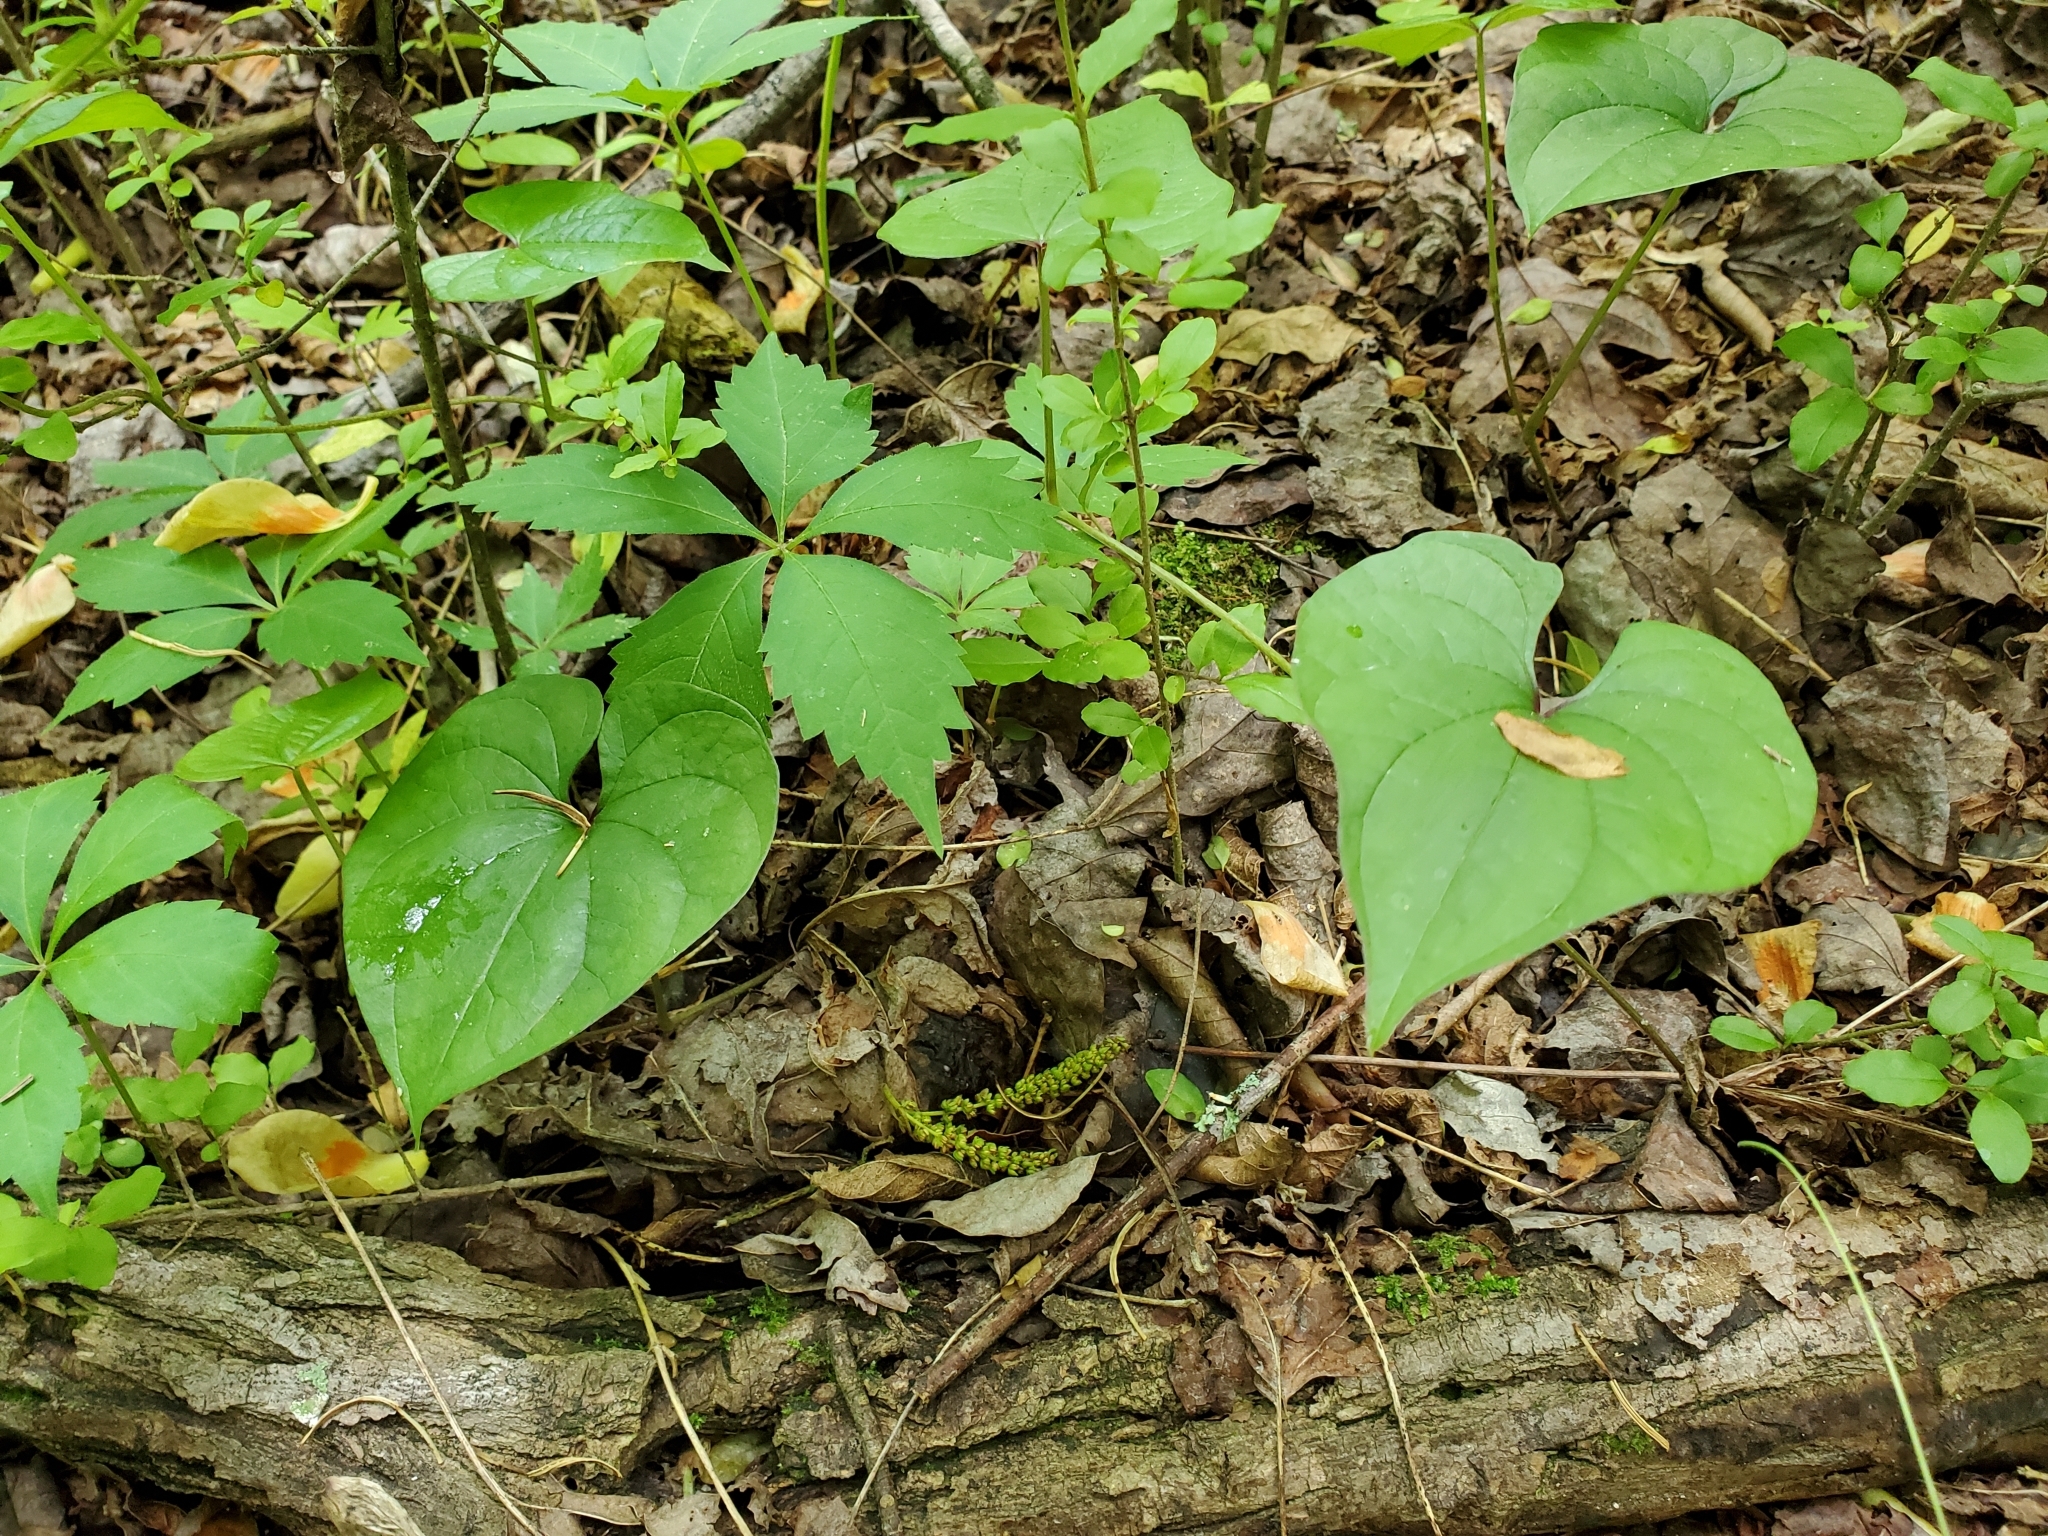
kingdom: Plantae
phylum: Tracheophyta
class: Liliopsida
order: Dioscoreales
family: Dioscoreaceae
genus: Dioscorea
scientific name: Dioscorea polystachya
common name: Chinese yam
